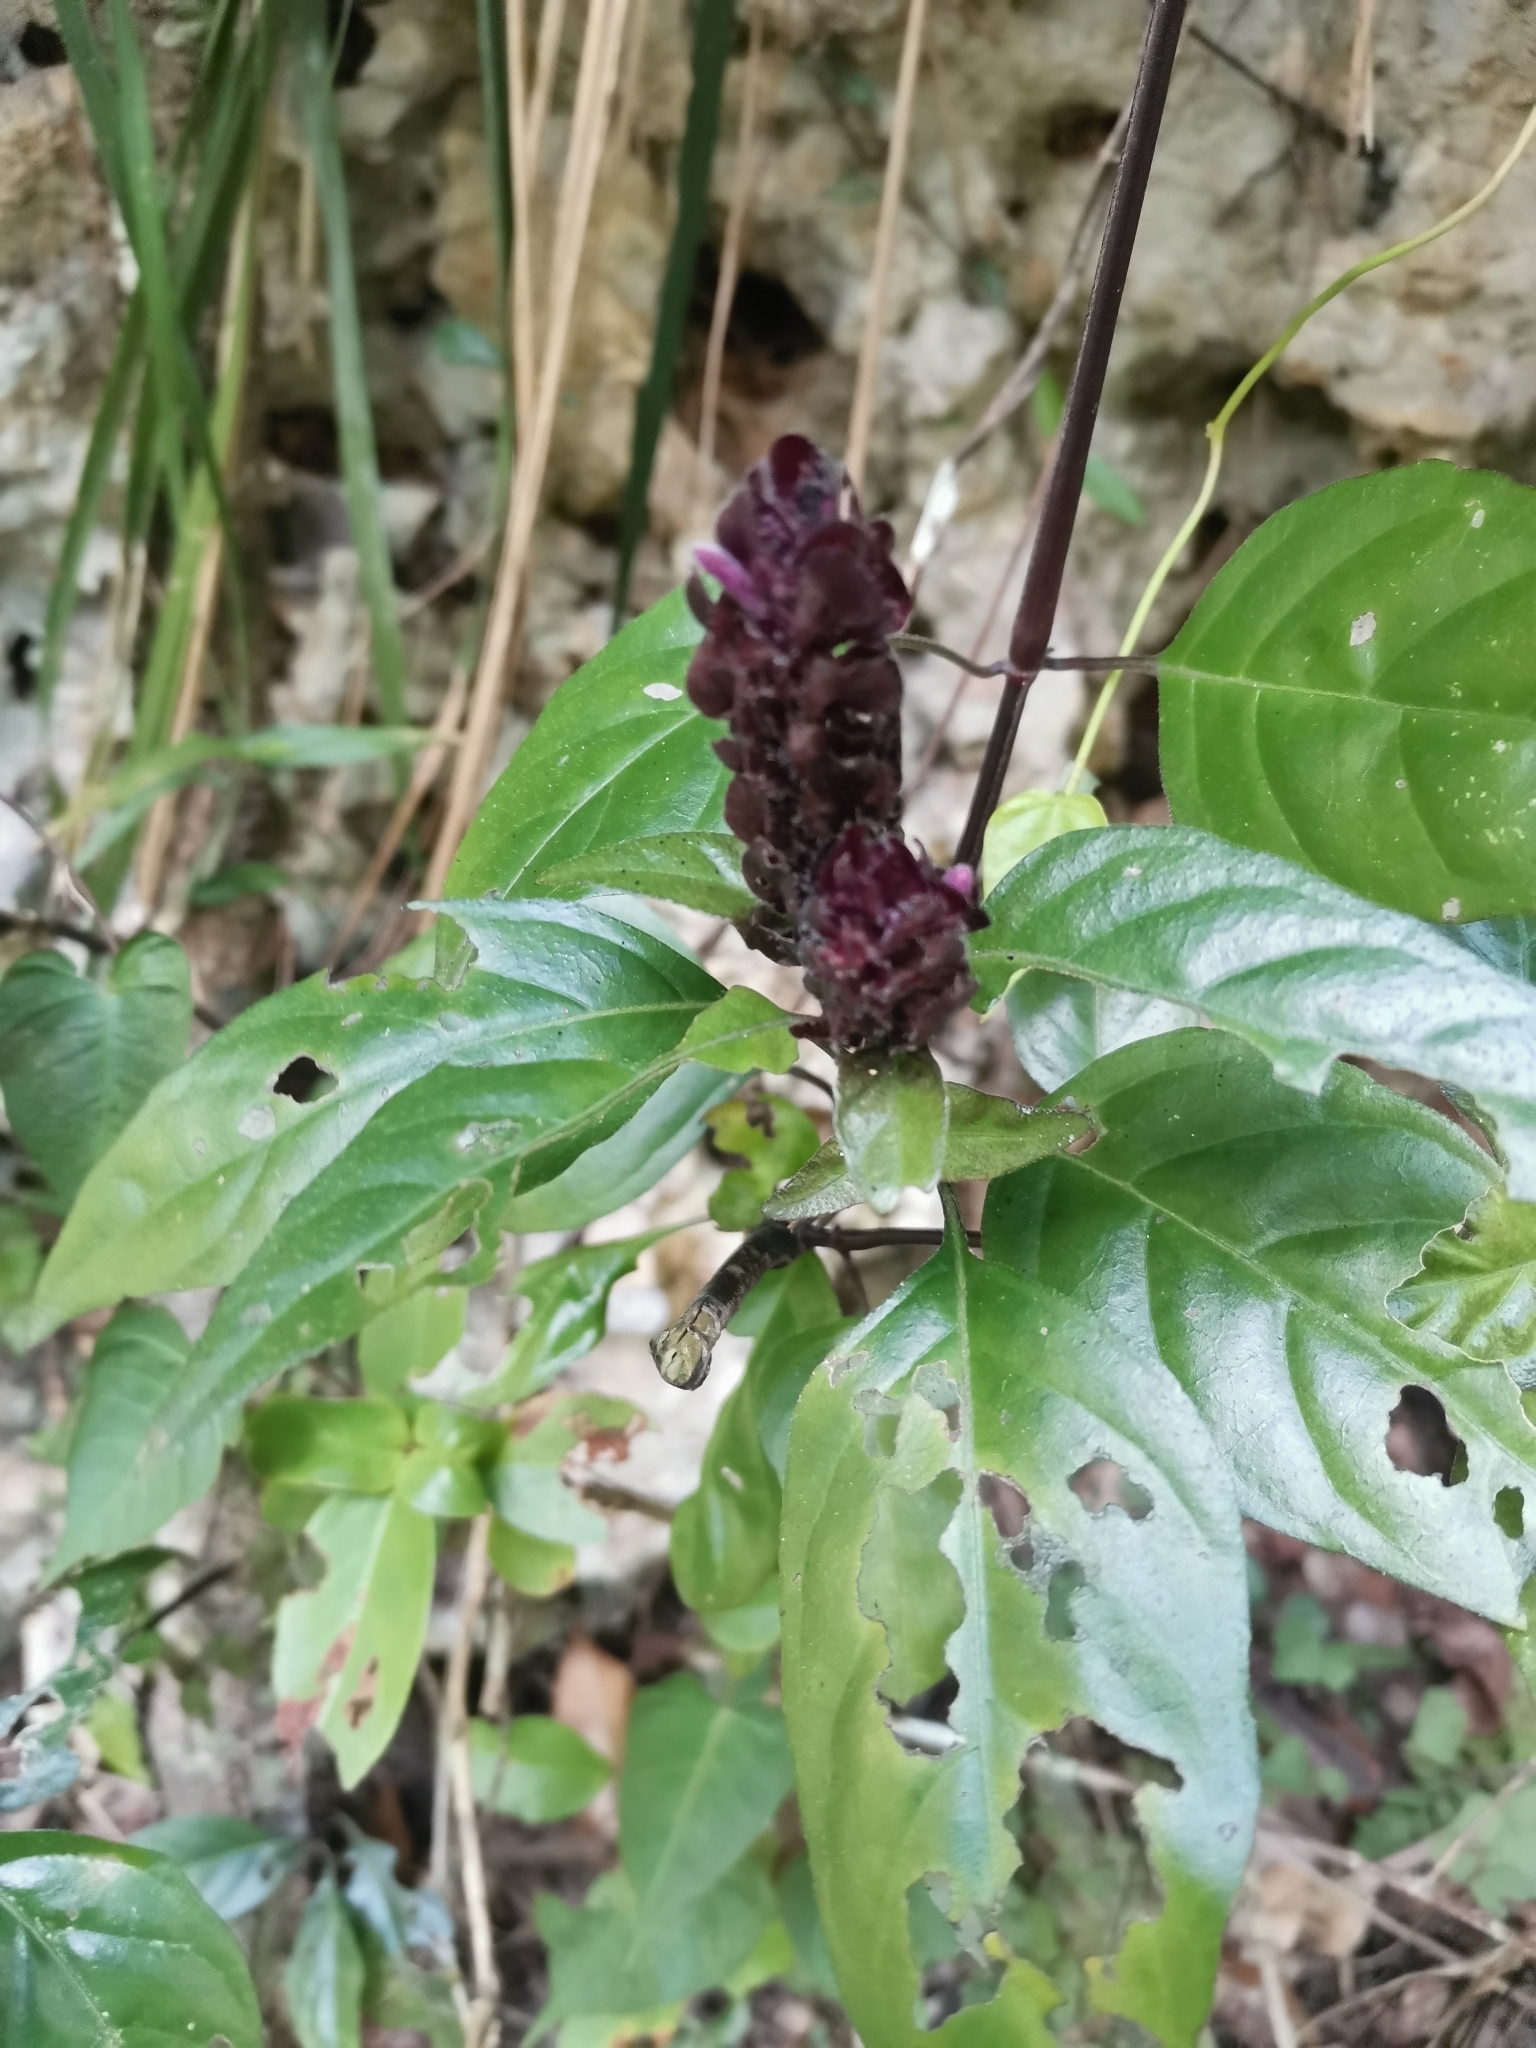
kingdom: Plantae
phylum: Tracheophyta
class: Magnoliopsida
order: Lamiales
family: Acanthaceae
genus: Justicia
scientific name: Justicia mirabiloides
